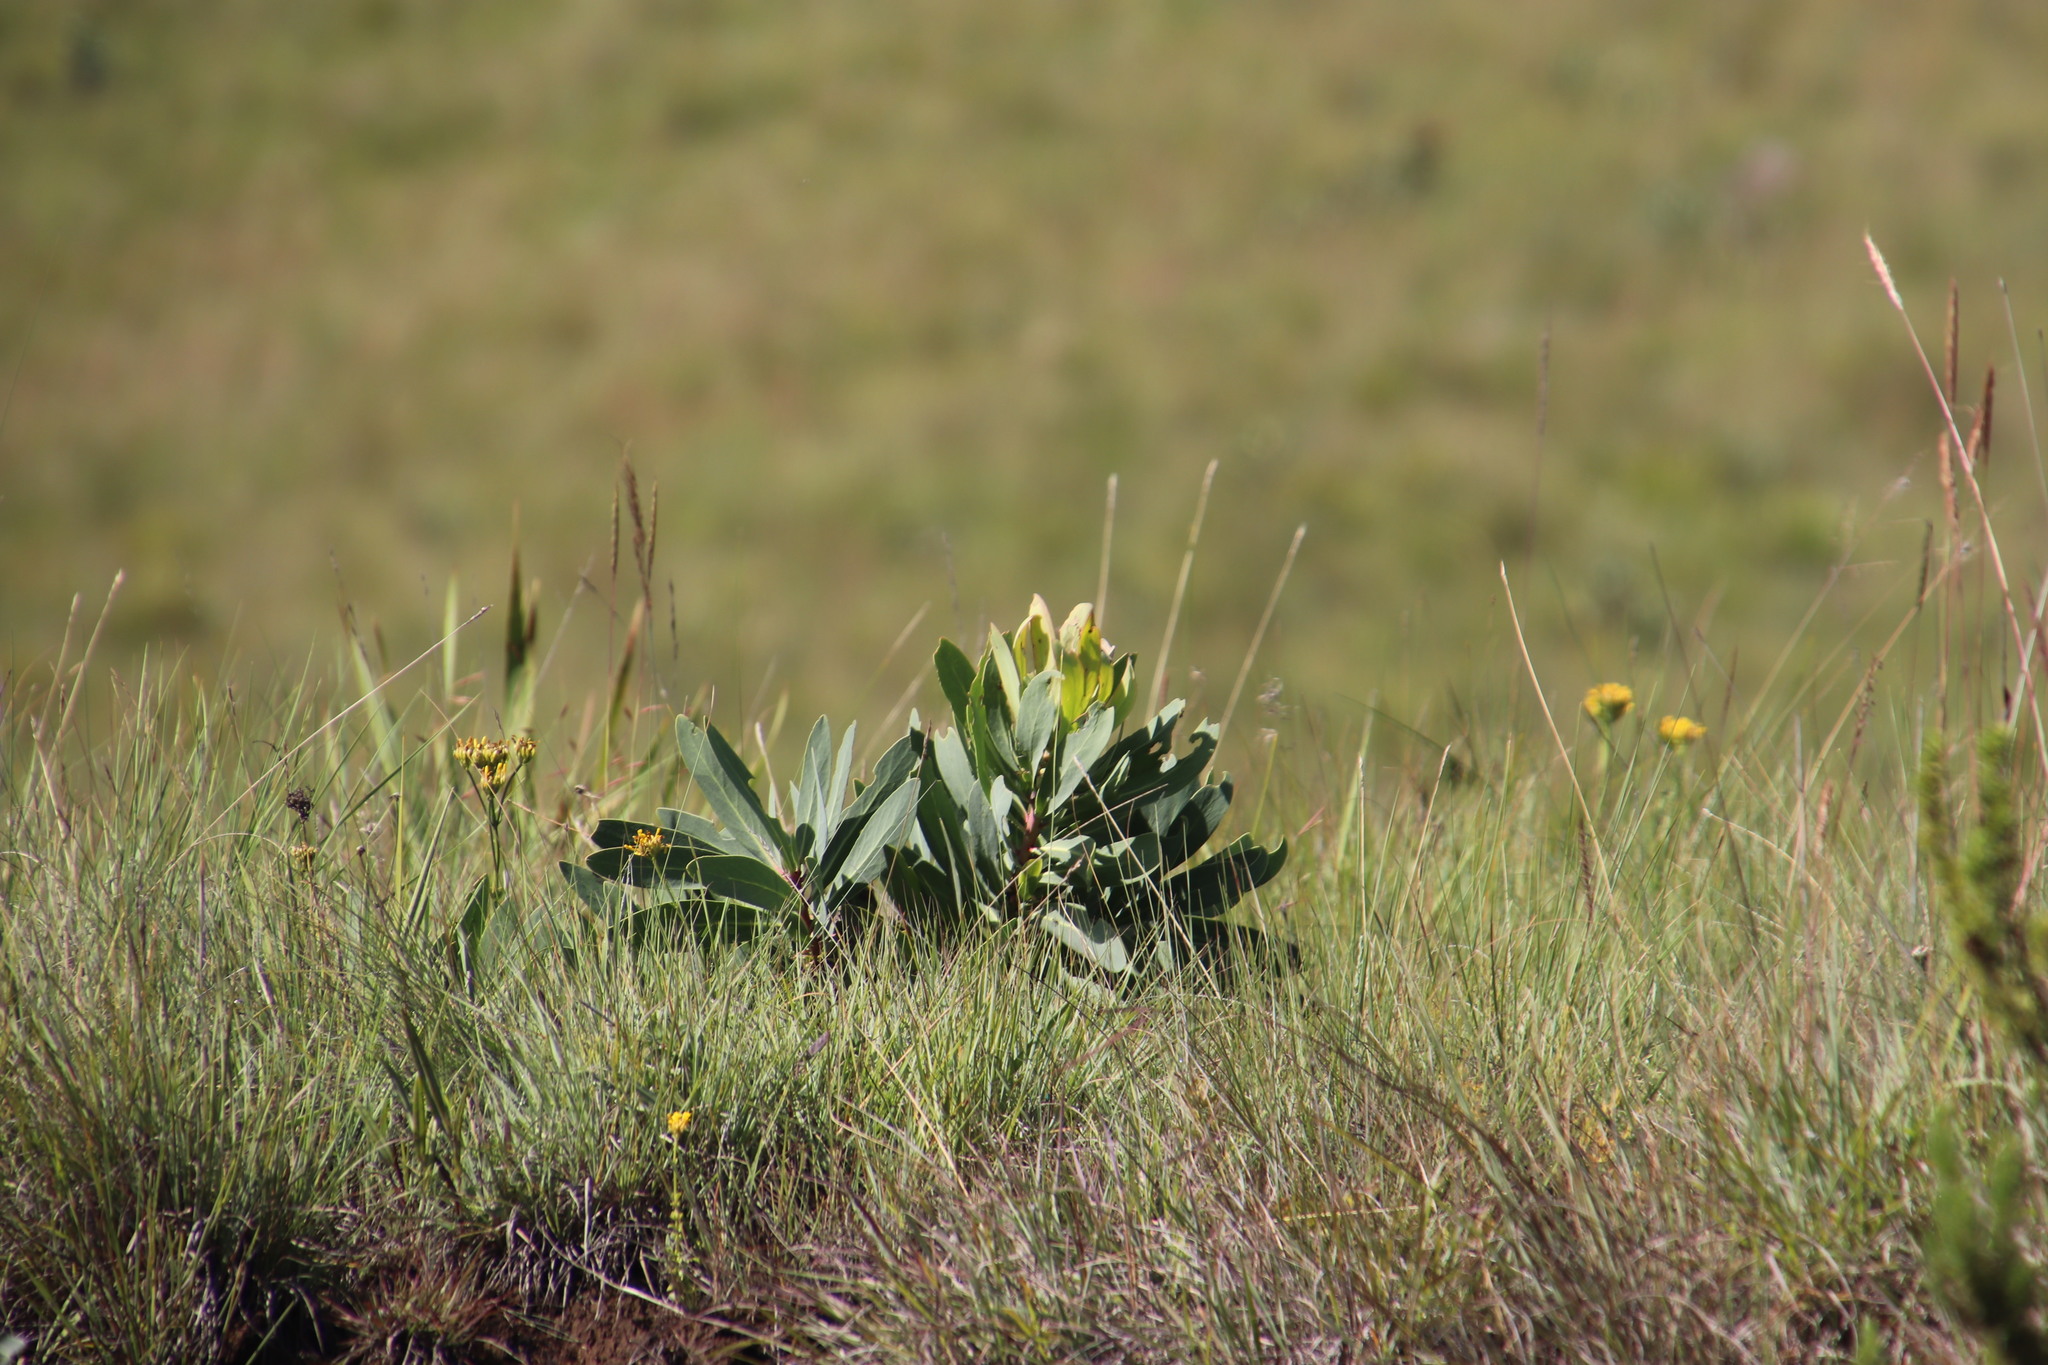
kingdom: Plantae
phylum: Tracheophyta
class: Magnoliopsida
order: Proteales
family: Proteaceae
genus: Protea
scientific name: Protea caffra
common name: Common sugarbush
